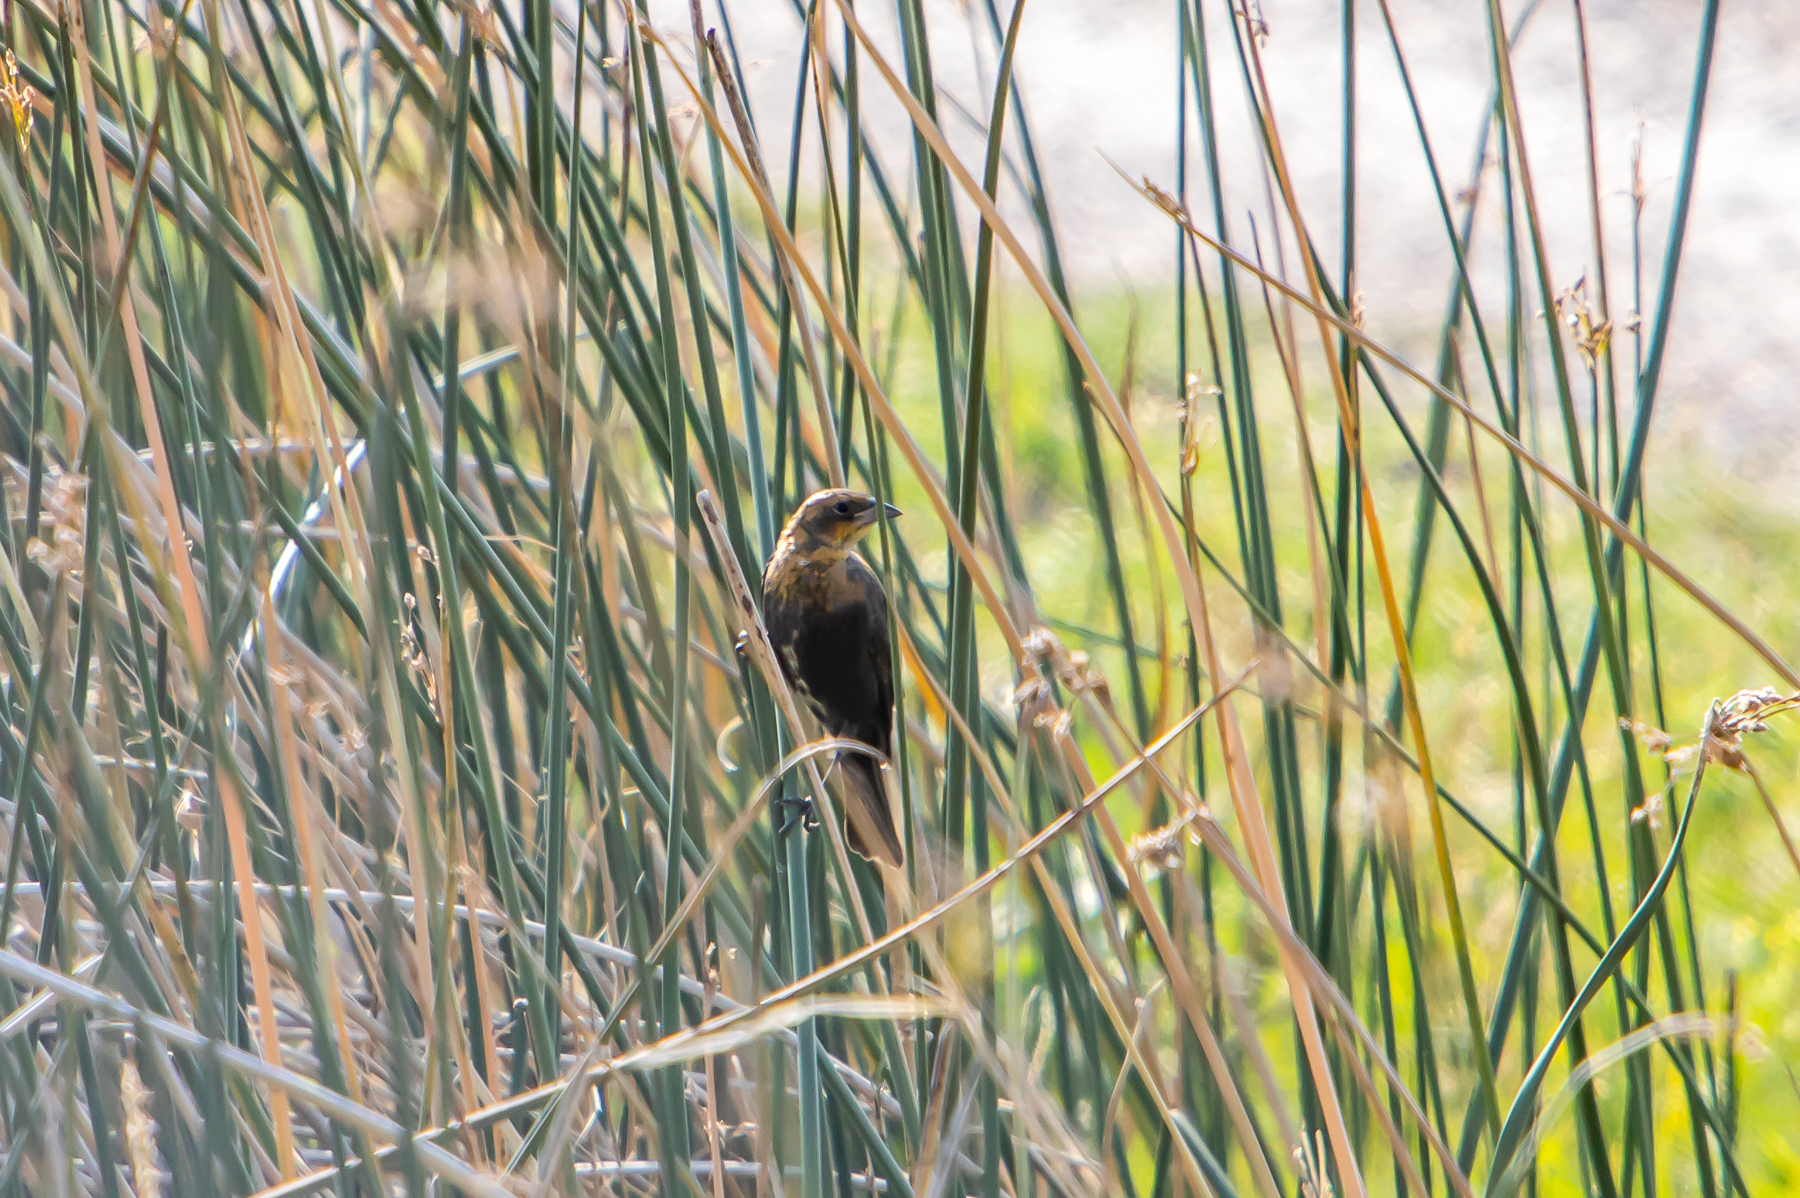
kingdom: Animalia
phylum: Chordata
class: Aves
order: Passeriformes
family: Icteridae
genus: Xanthocephalus
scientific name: Xanthocephalus xanthocephalus
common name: Yellow-headed blackbird
